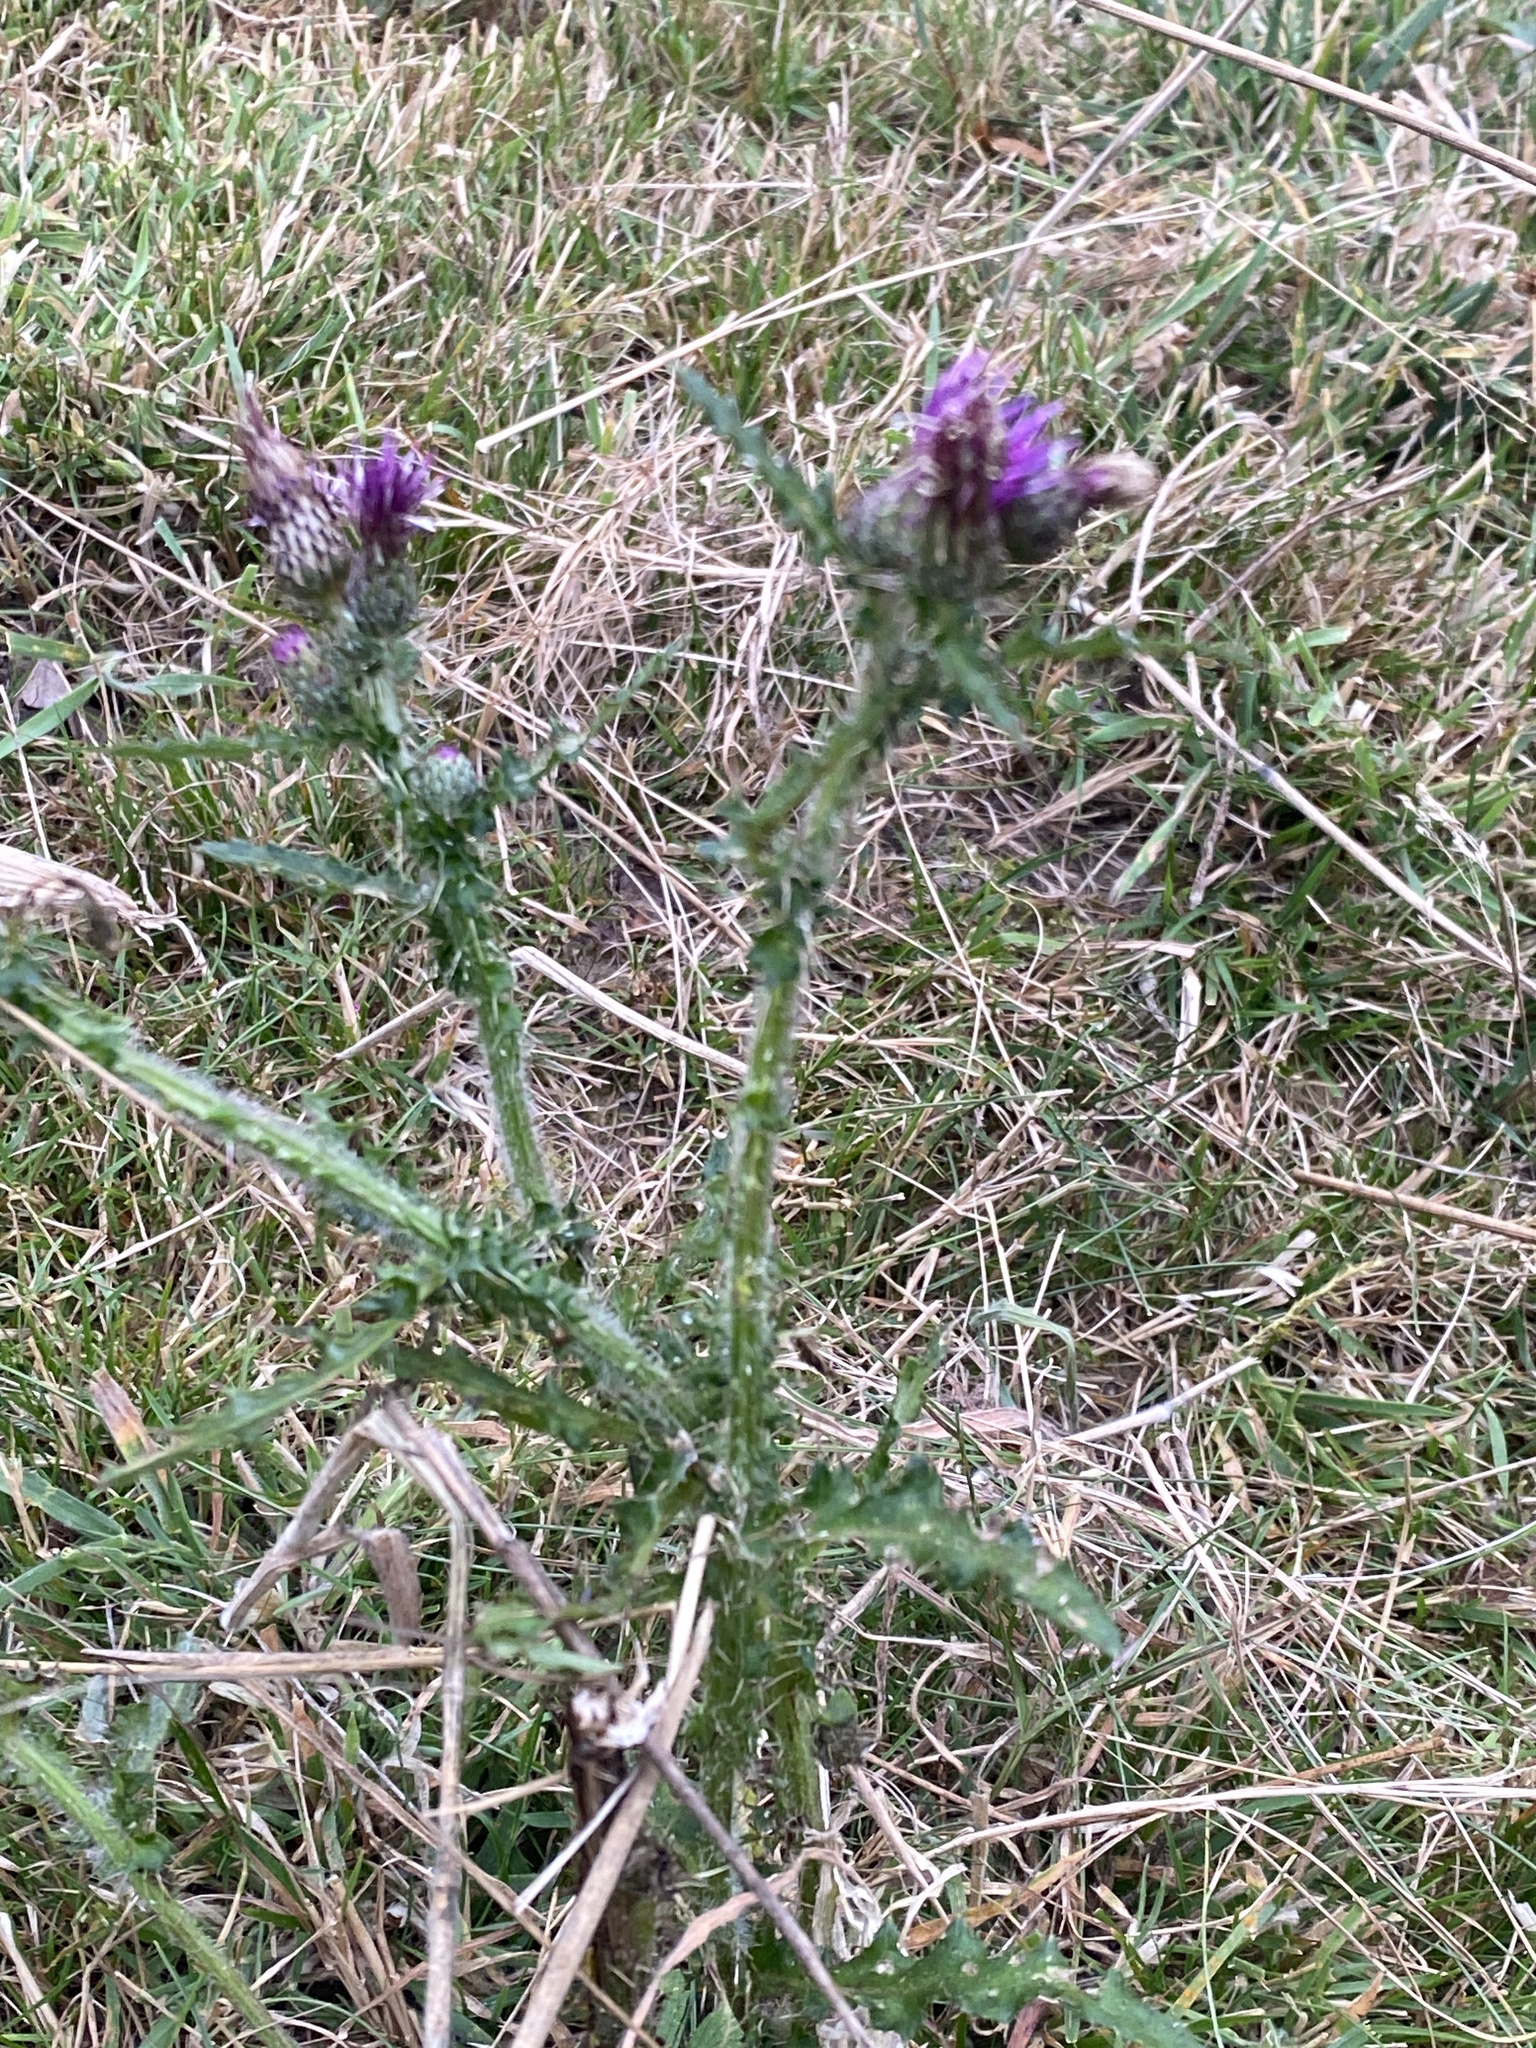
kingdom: Plantae
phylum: Tracheophyta
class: Magnoliopsida
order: Asterales
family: Asteraceae
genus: Cirsium
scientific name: Cirsium palustre
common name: Marsh thistle
